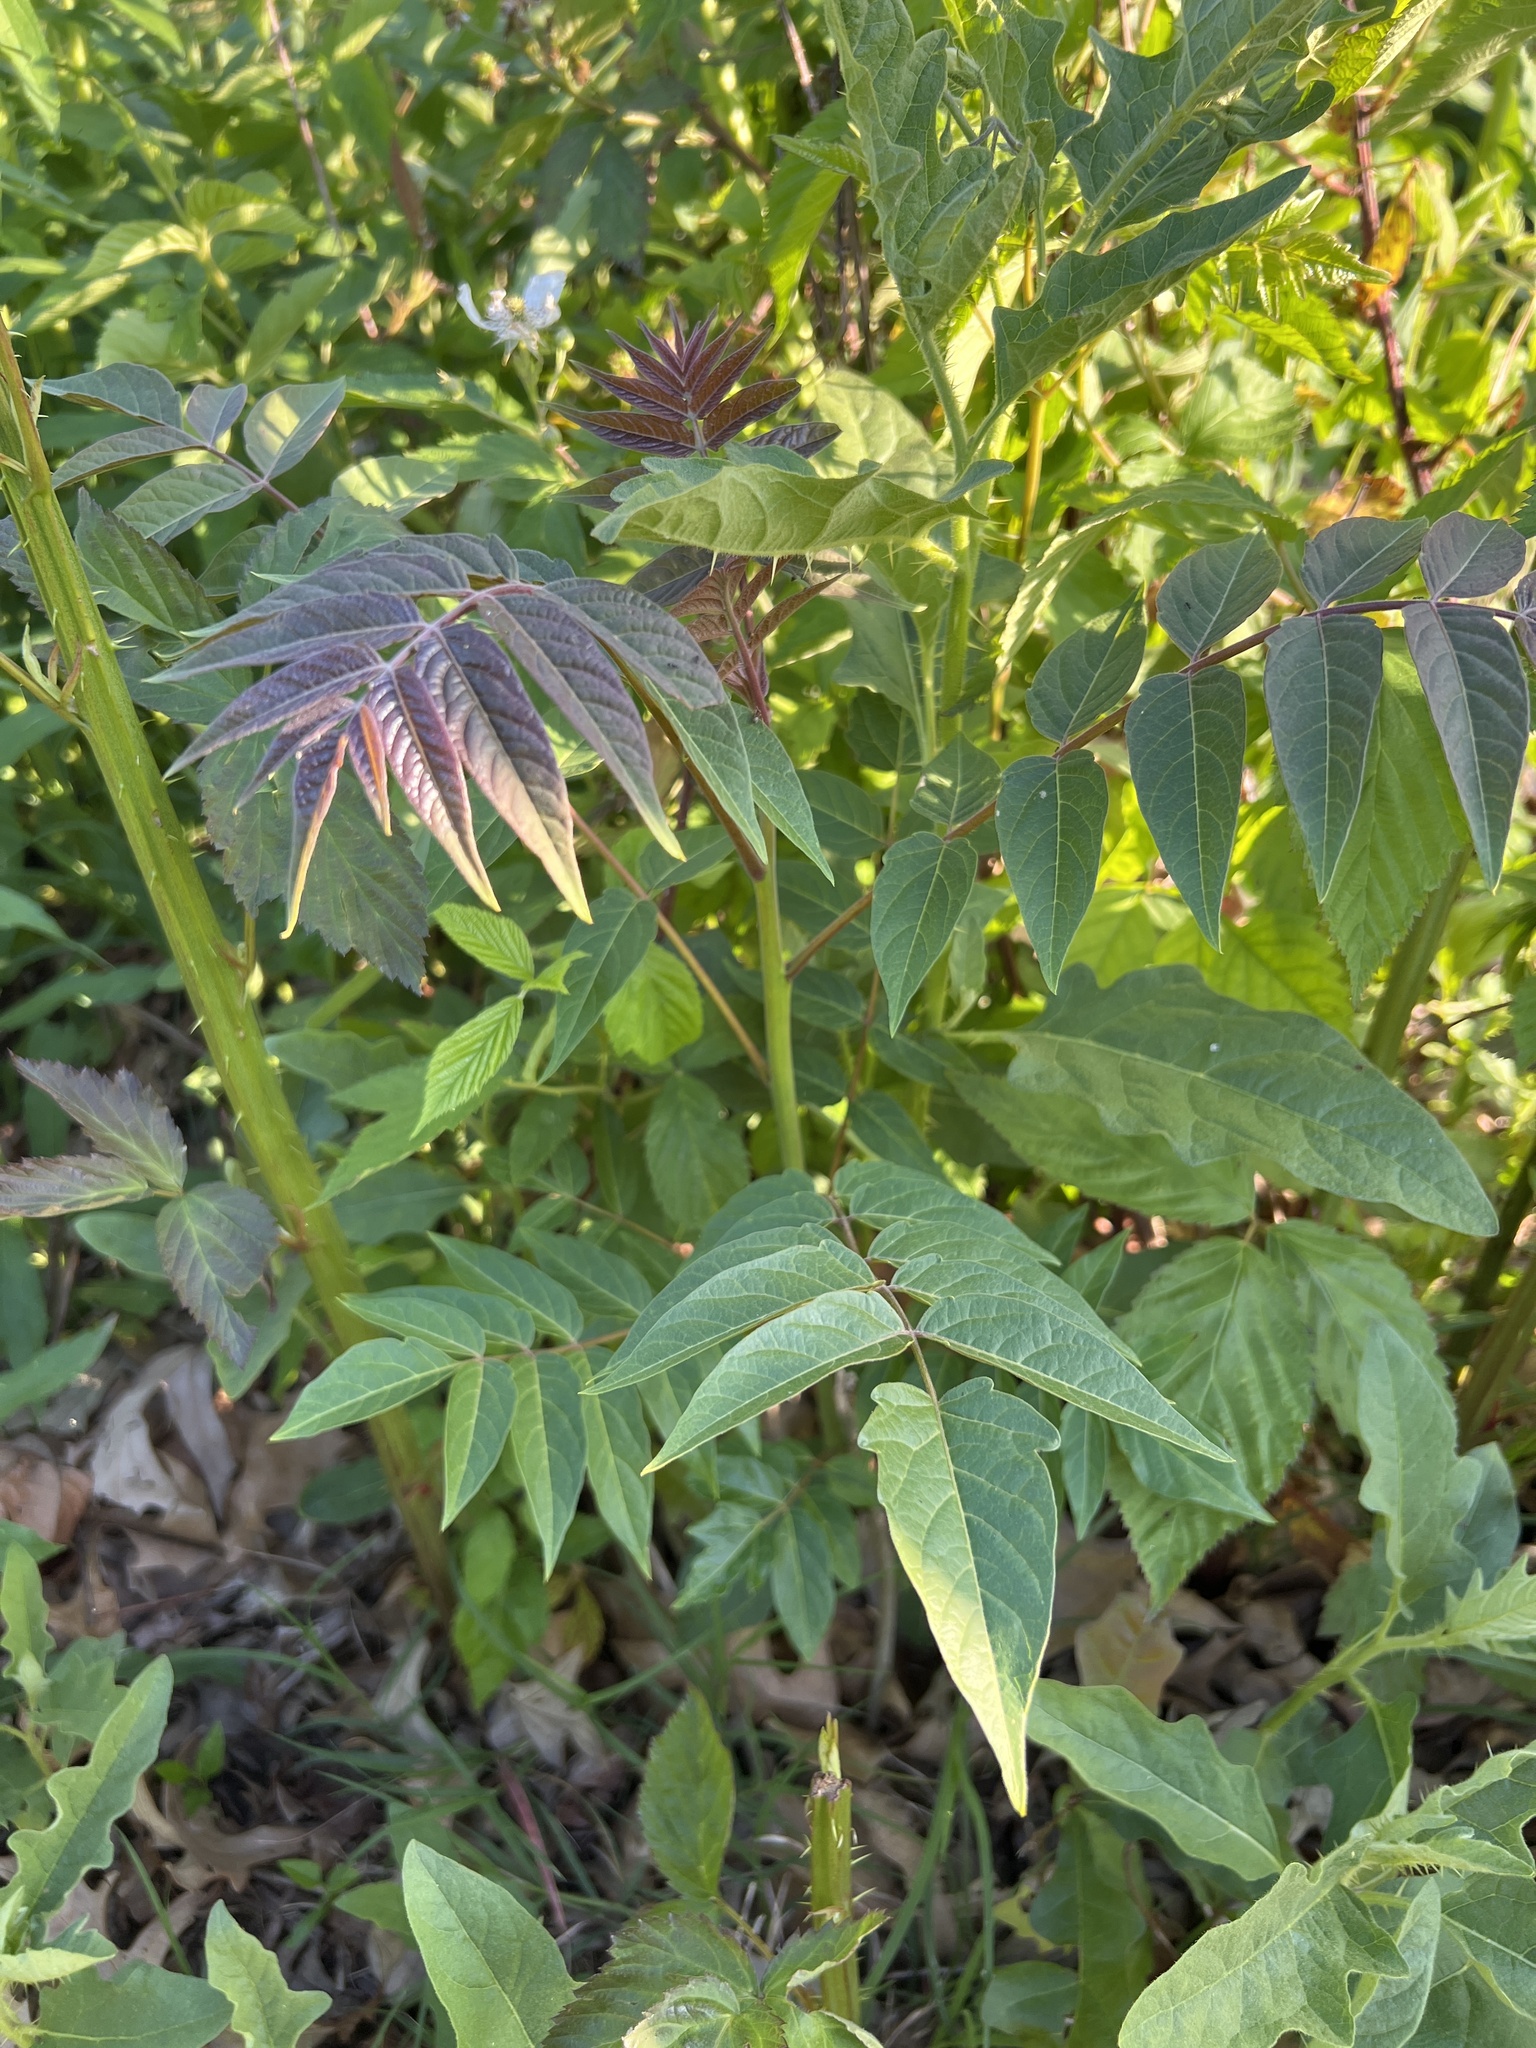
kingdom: Plantae
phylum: Tracheophyta
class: Magnoliopsida
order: Sapindales
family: Simaroubaceae
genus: Ailanthus
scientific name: Ailanthus altissima
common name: Tree-of-heaven
